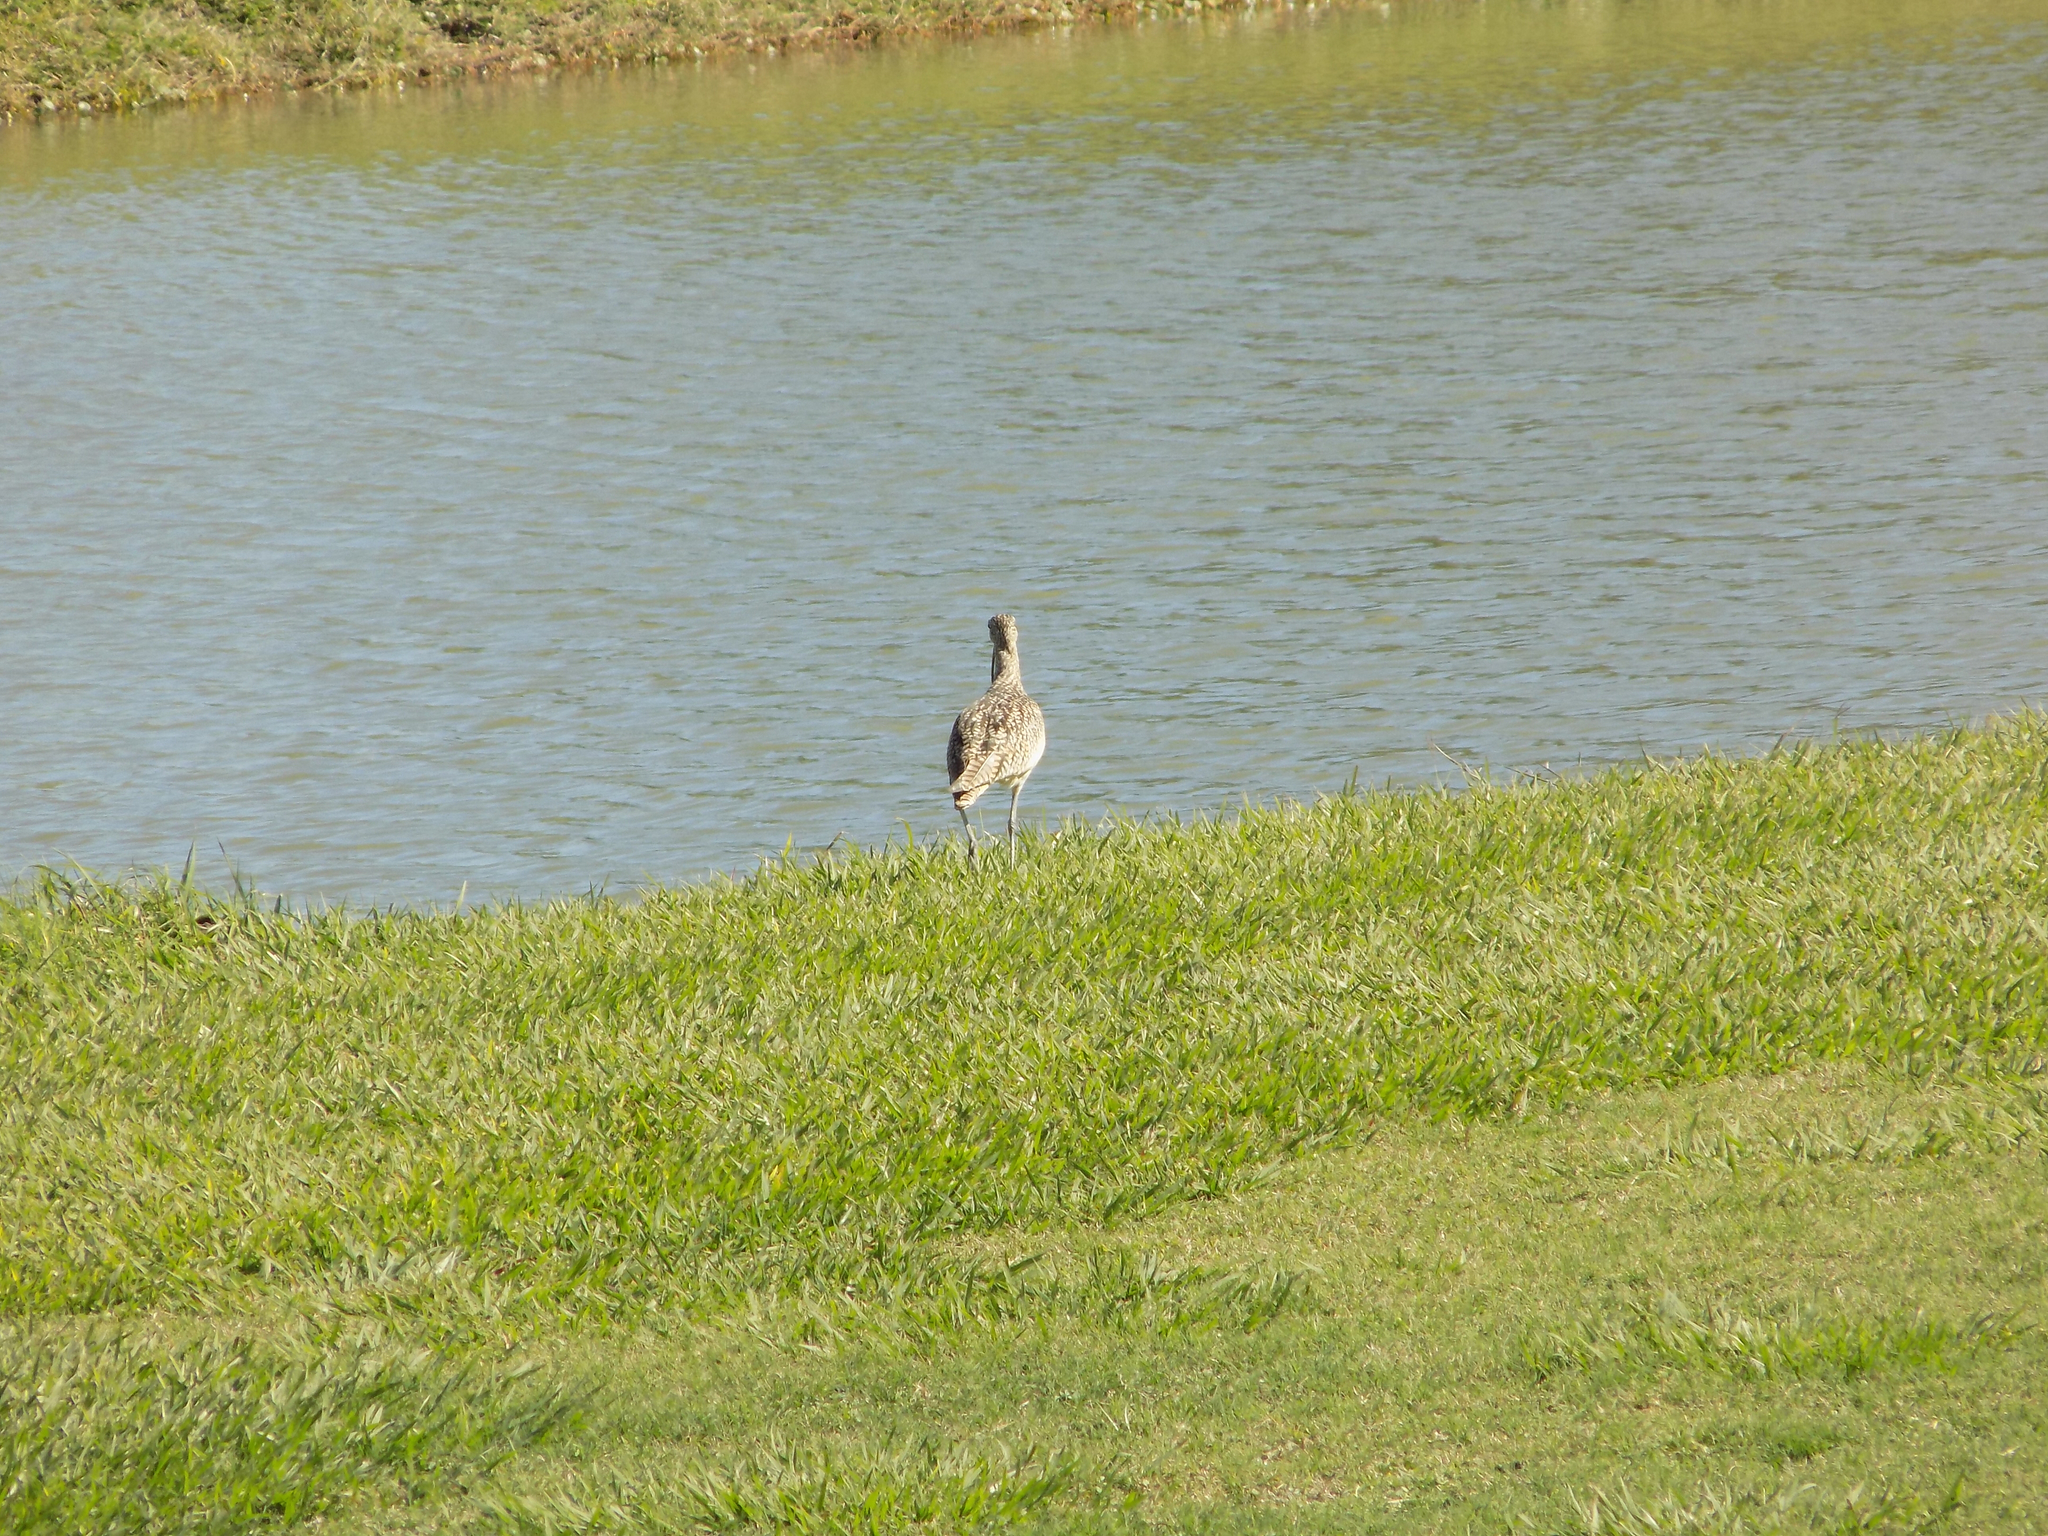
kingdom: Animalia
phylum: Chordata
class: Aves
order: Charadriiformes
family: Scolopacidae
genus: Numenius
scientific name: Numenius americanus
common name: Long-billed curlew
